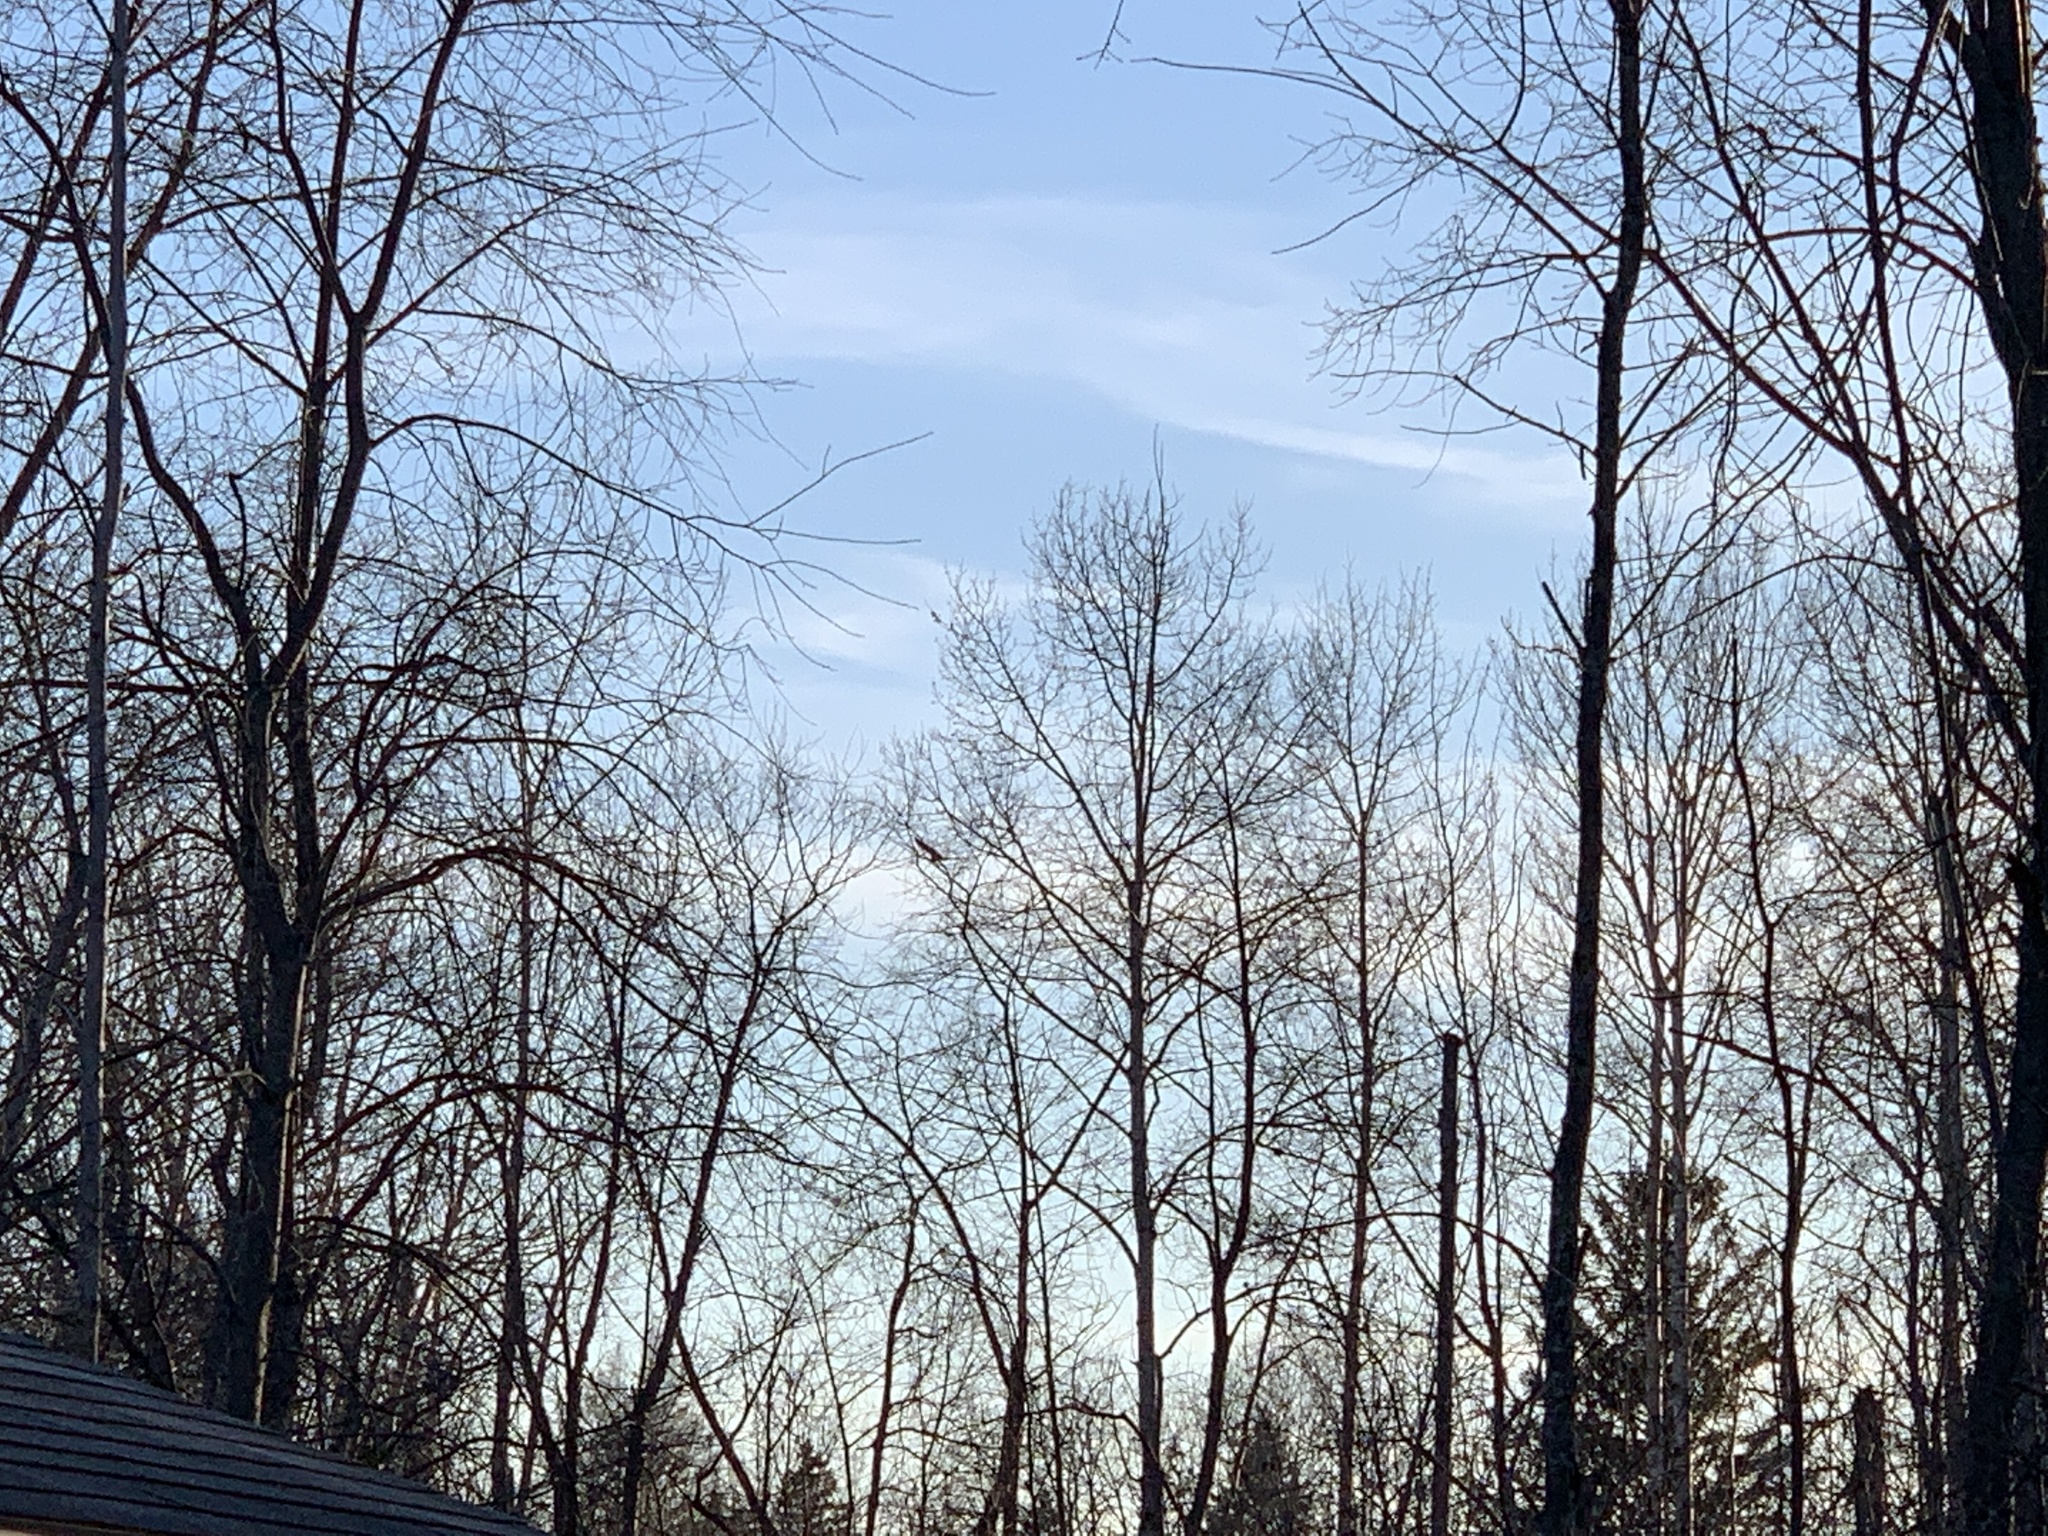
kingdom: Animalia
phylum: Chordata
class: Aves
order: Accipitriformes
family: Cathartidae
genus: Cathartes
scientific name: Cathartes aura
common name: Turkey vulture
